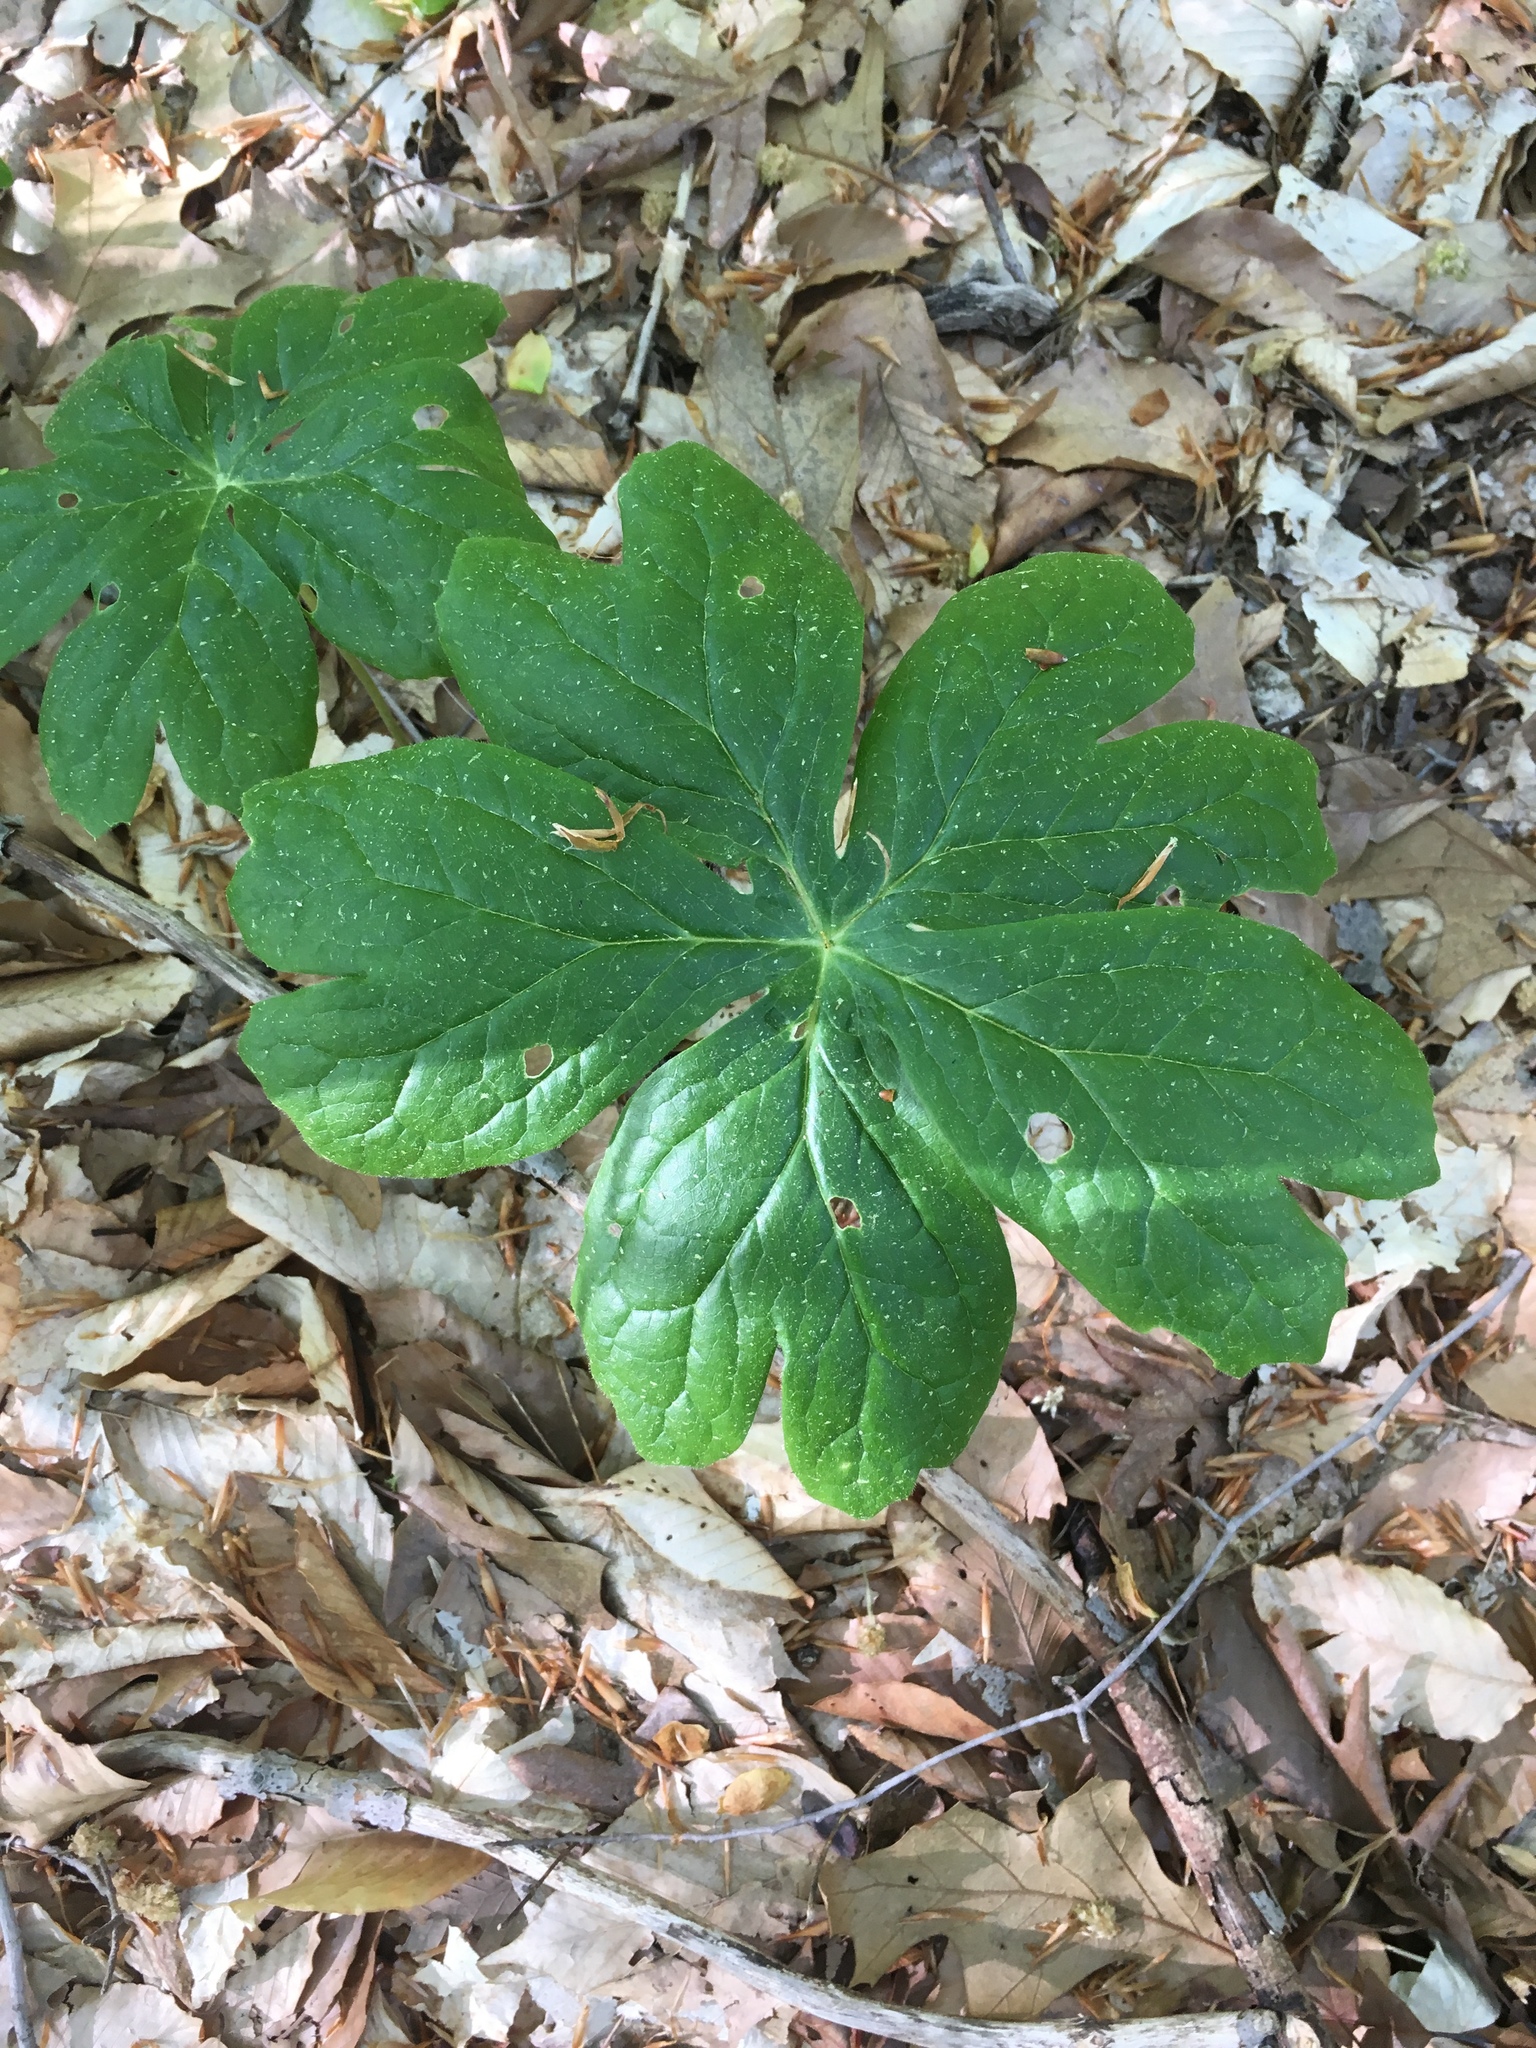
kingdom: Plantae
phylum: Tracheophyta
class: Magnoliopsida
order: Ranunculales
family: Berberidaceae
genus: Podophyllum
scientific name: Podophyllum peltatum
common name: Wild mandrake
